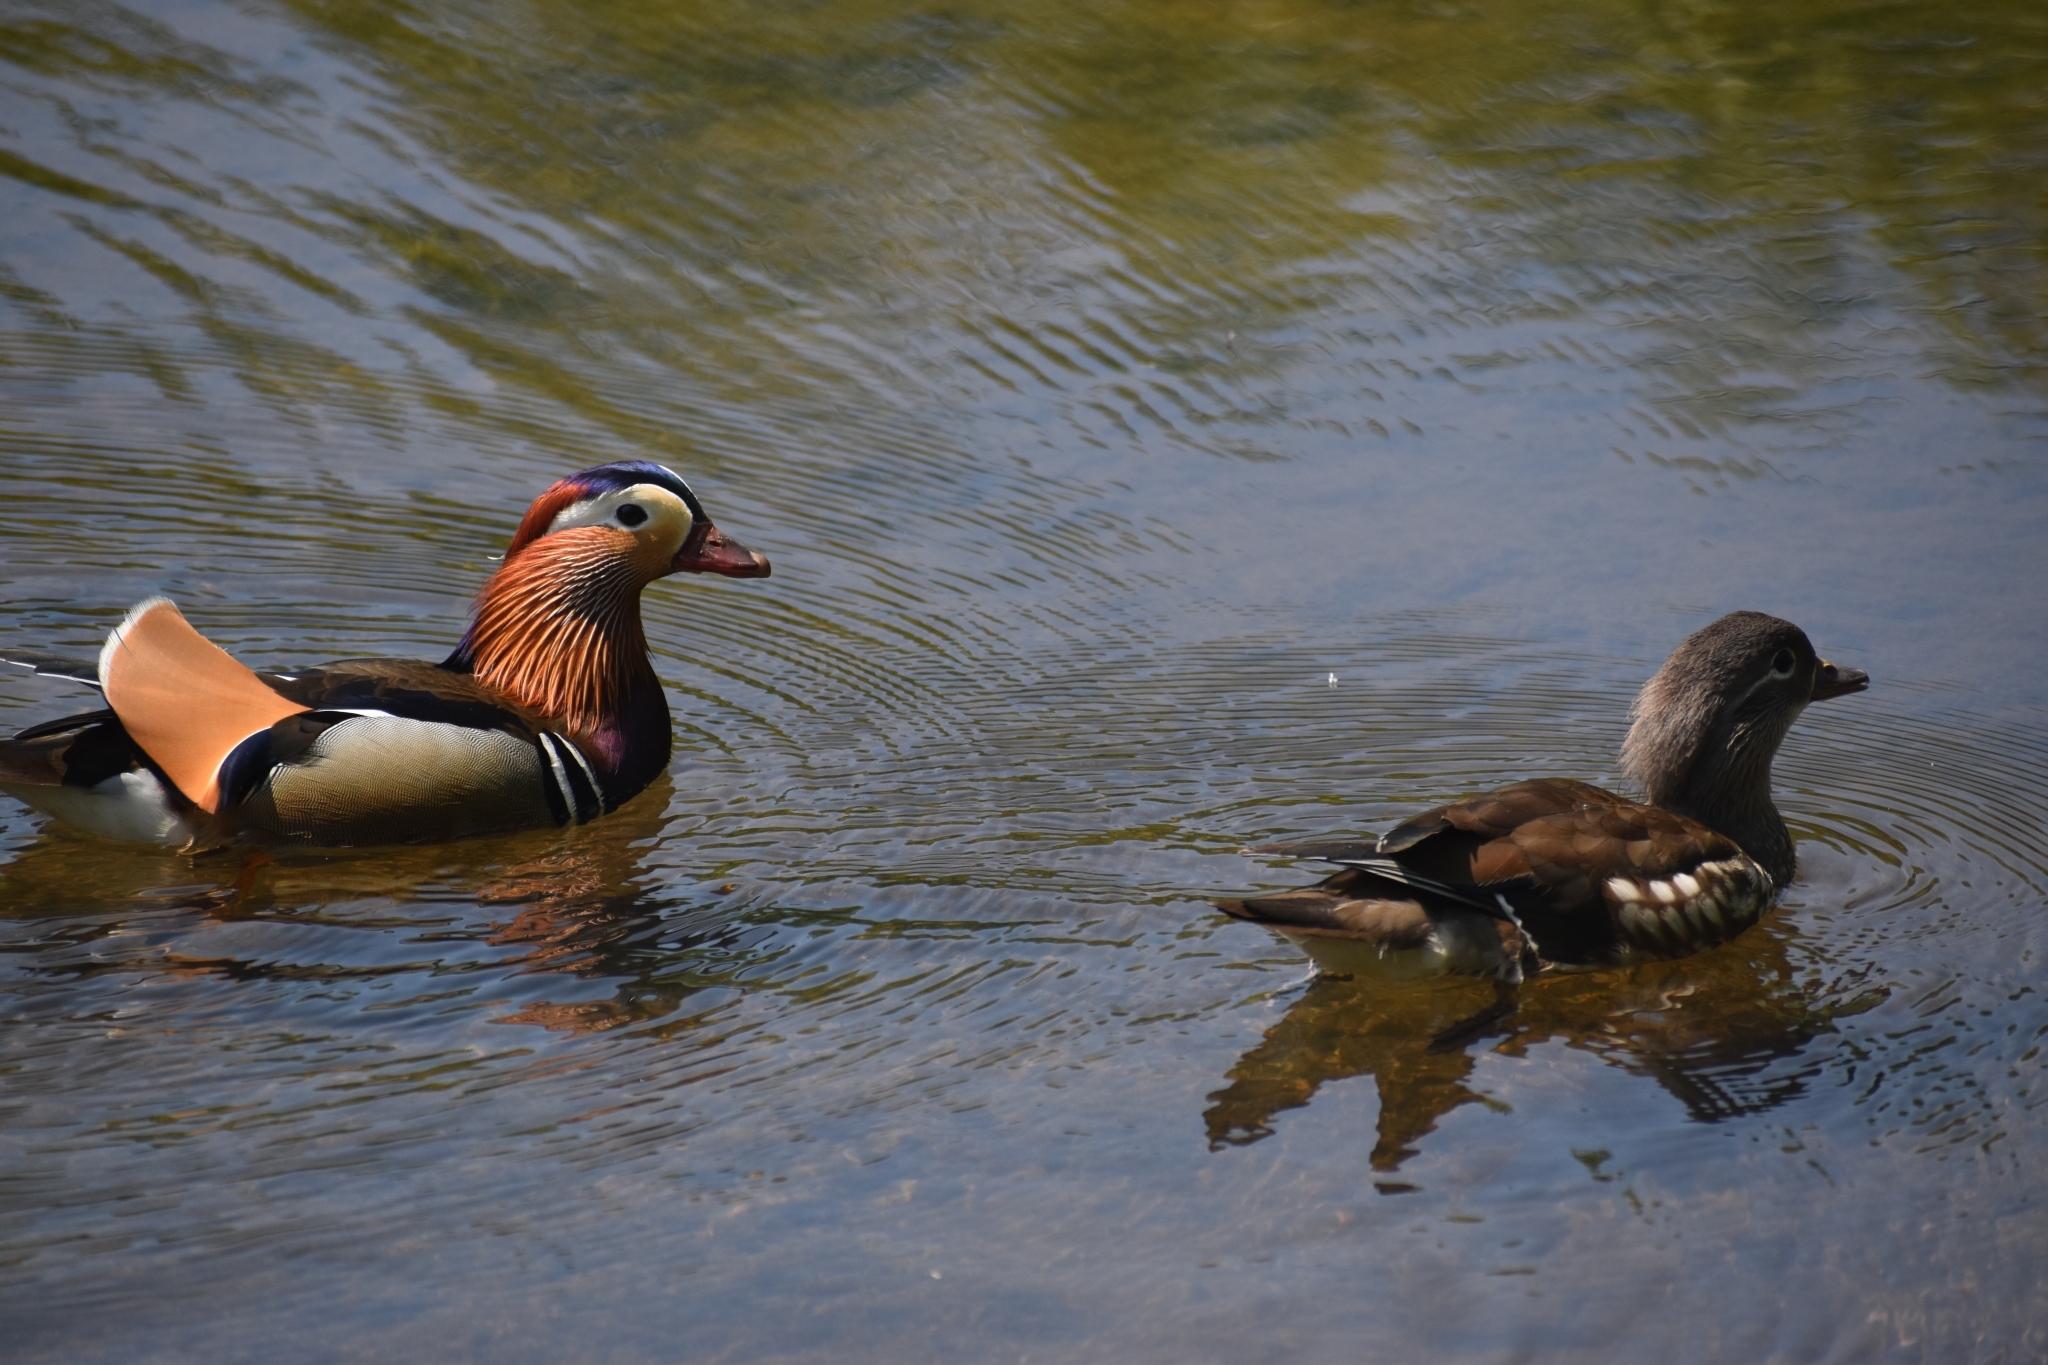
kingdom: Animalia
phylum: Chordata
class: Aves
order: Anseriformes
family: Anatidae
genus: Aix
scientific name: Aix galericulata
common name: Mandarin duck
